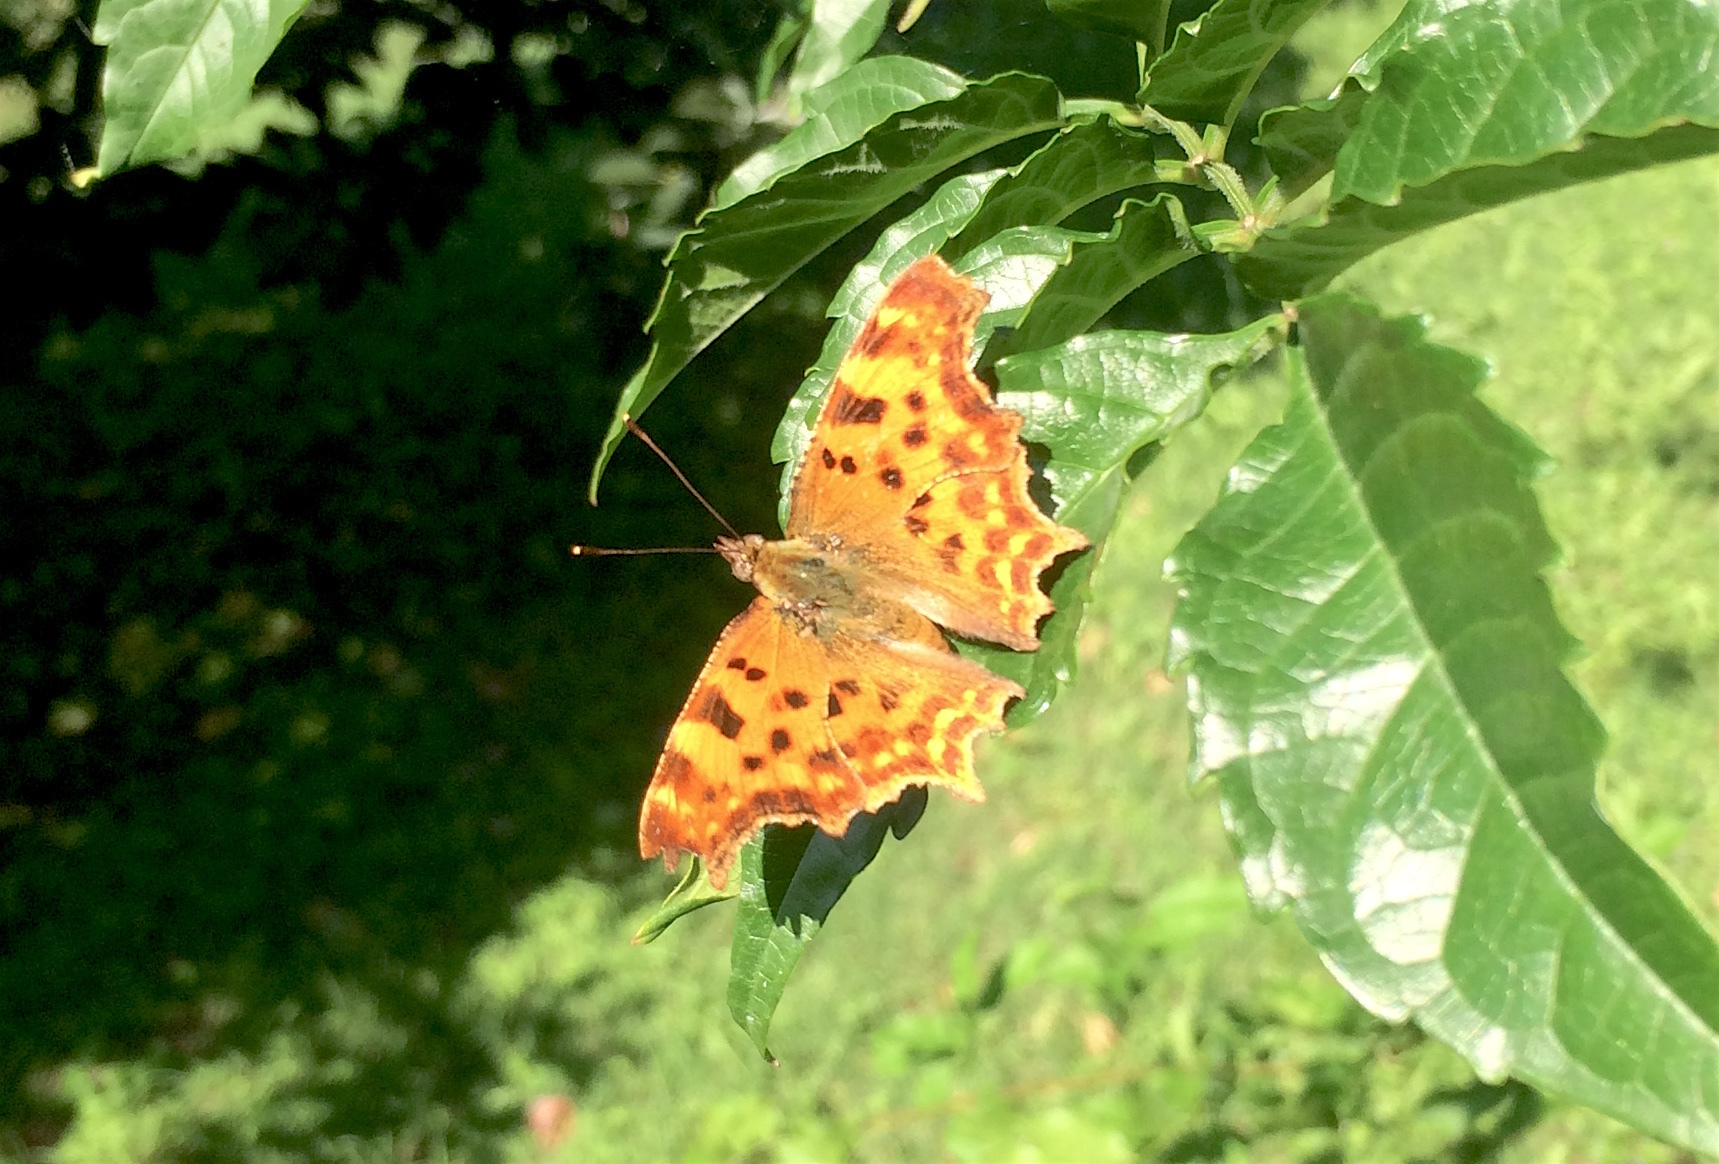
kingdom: Animalia
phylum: Arthropoda
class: Insecta
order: Lepidoptera
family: Nymphalidae
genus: Polygonia
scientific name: Polygonia c-album
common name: Comma
